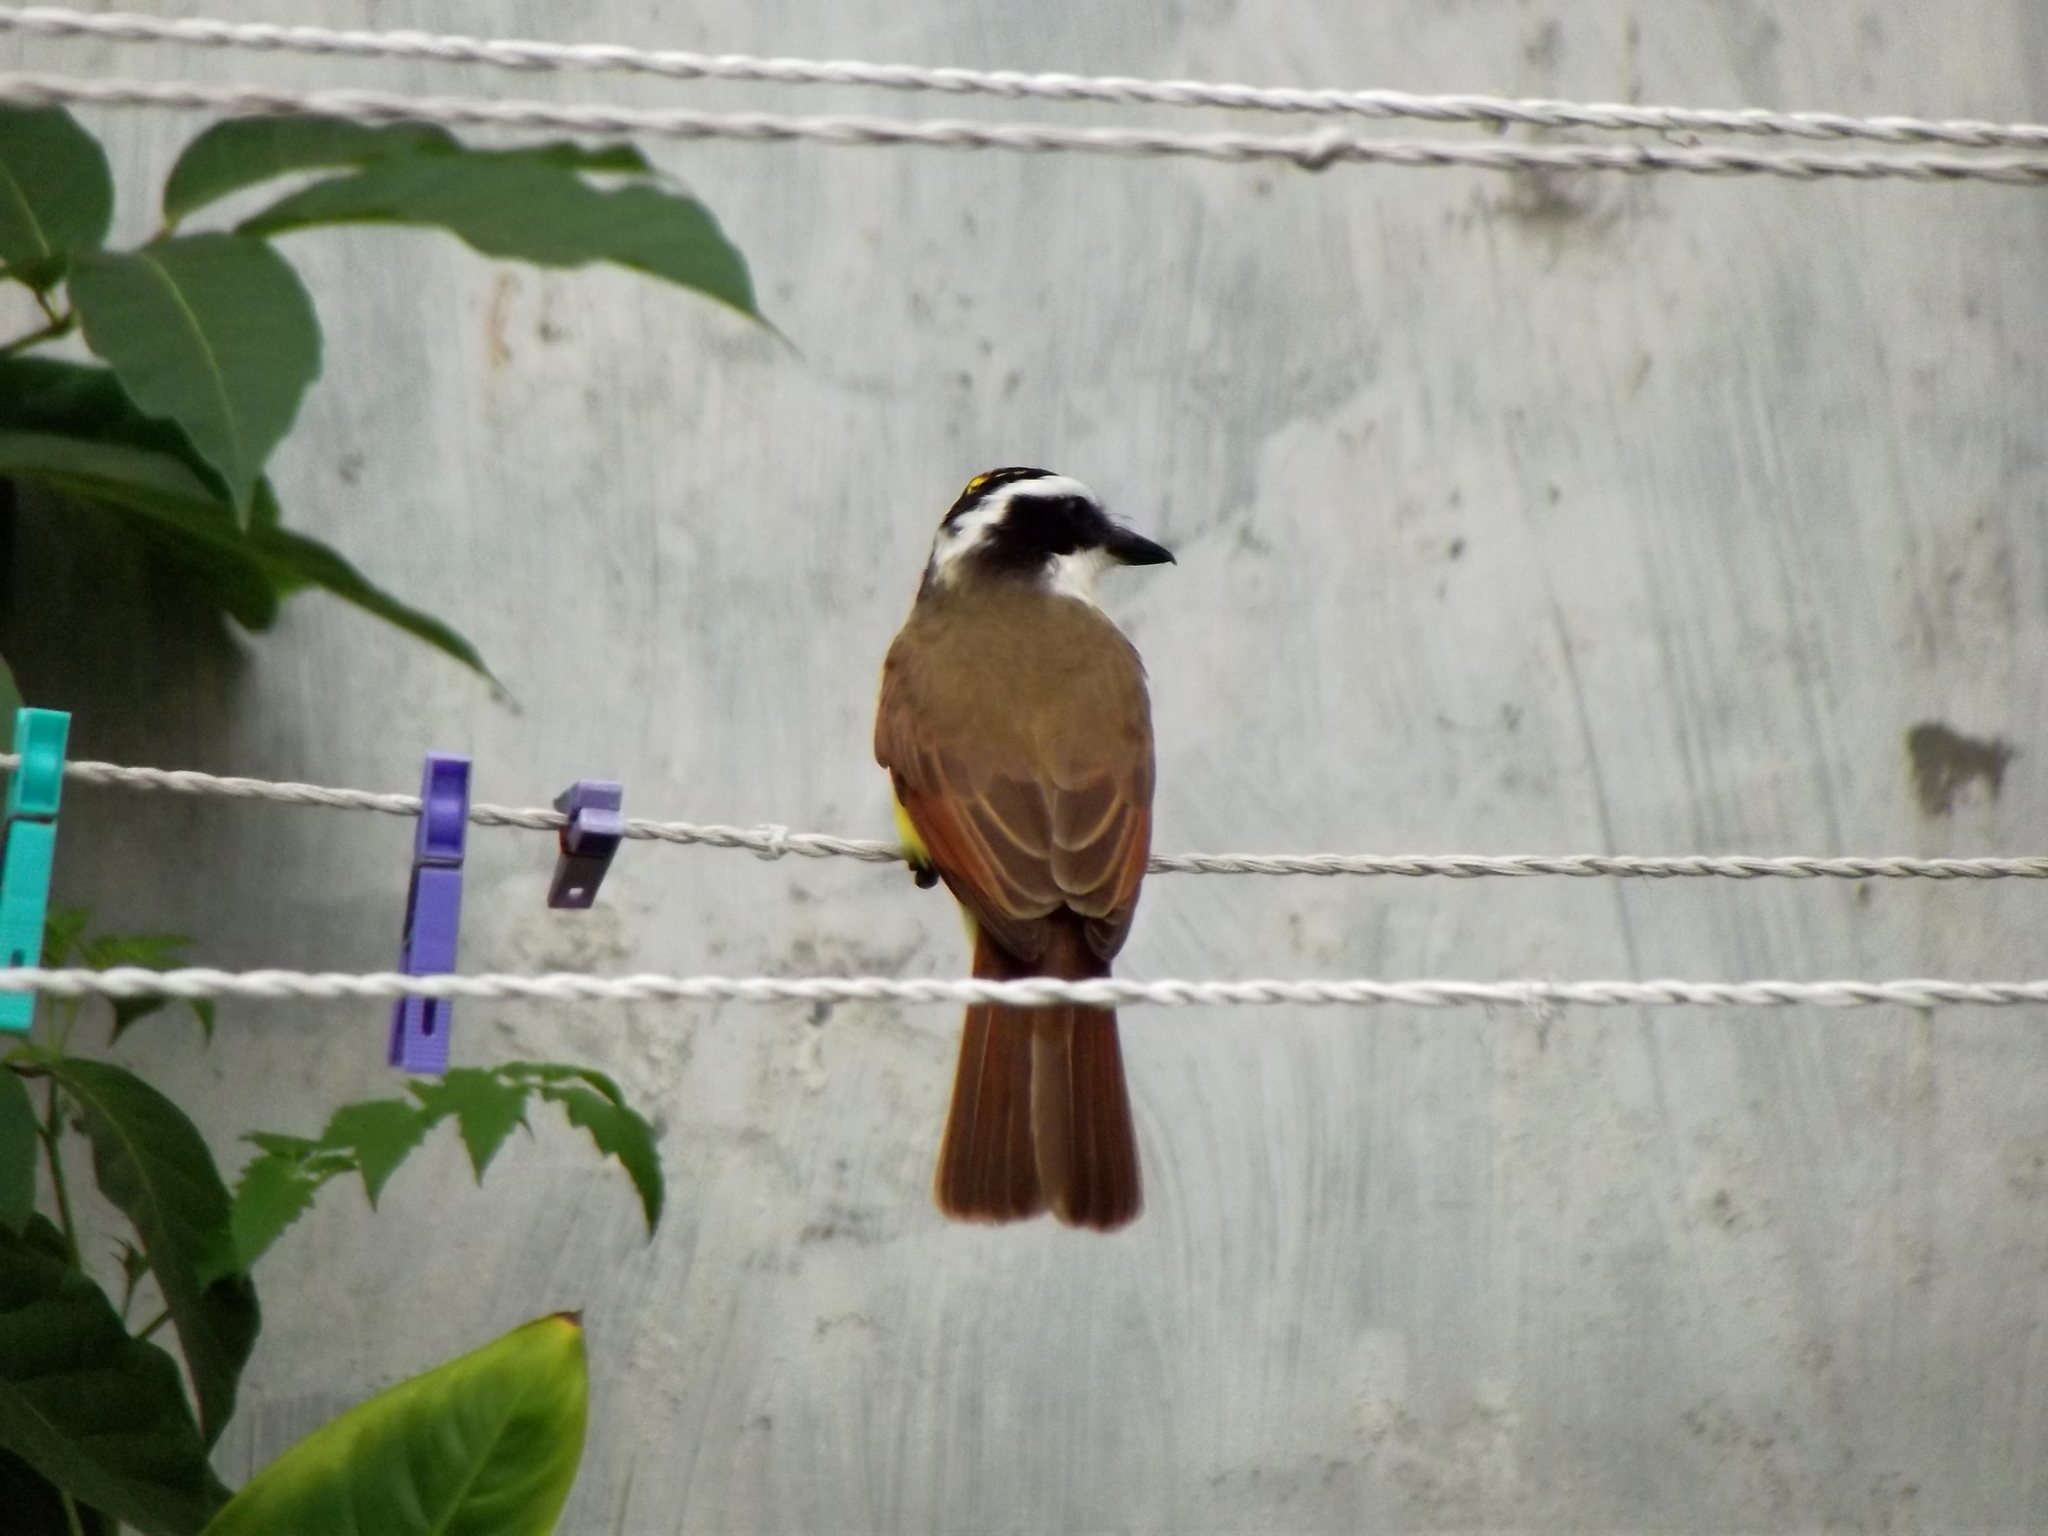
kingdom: Animalia
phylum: Chordata
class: Aves
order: Passeriformes
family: Tyrannidae
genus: Pitangus
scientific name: Pitangus sulphuratus
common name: Great kiskadee
